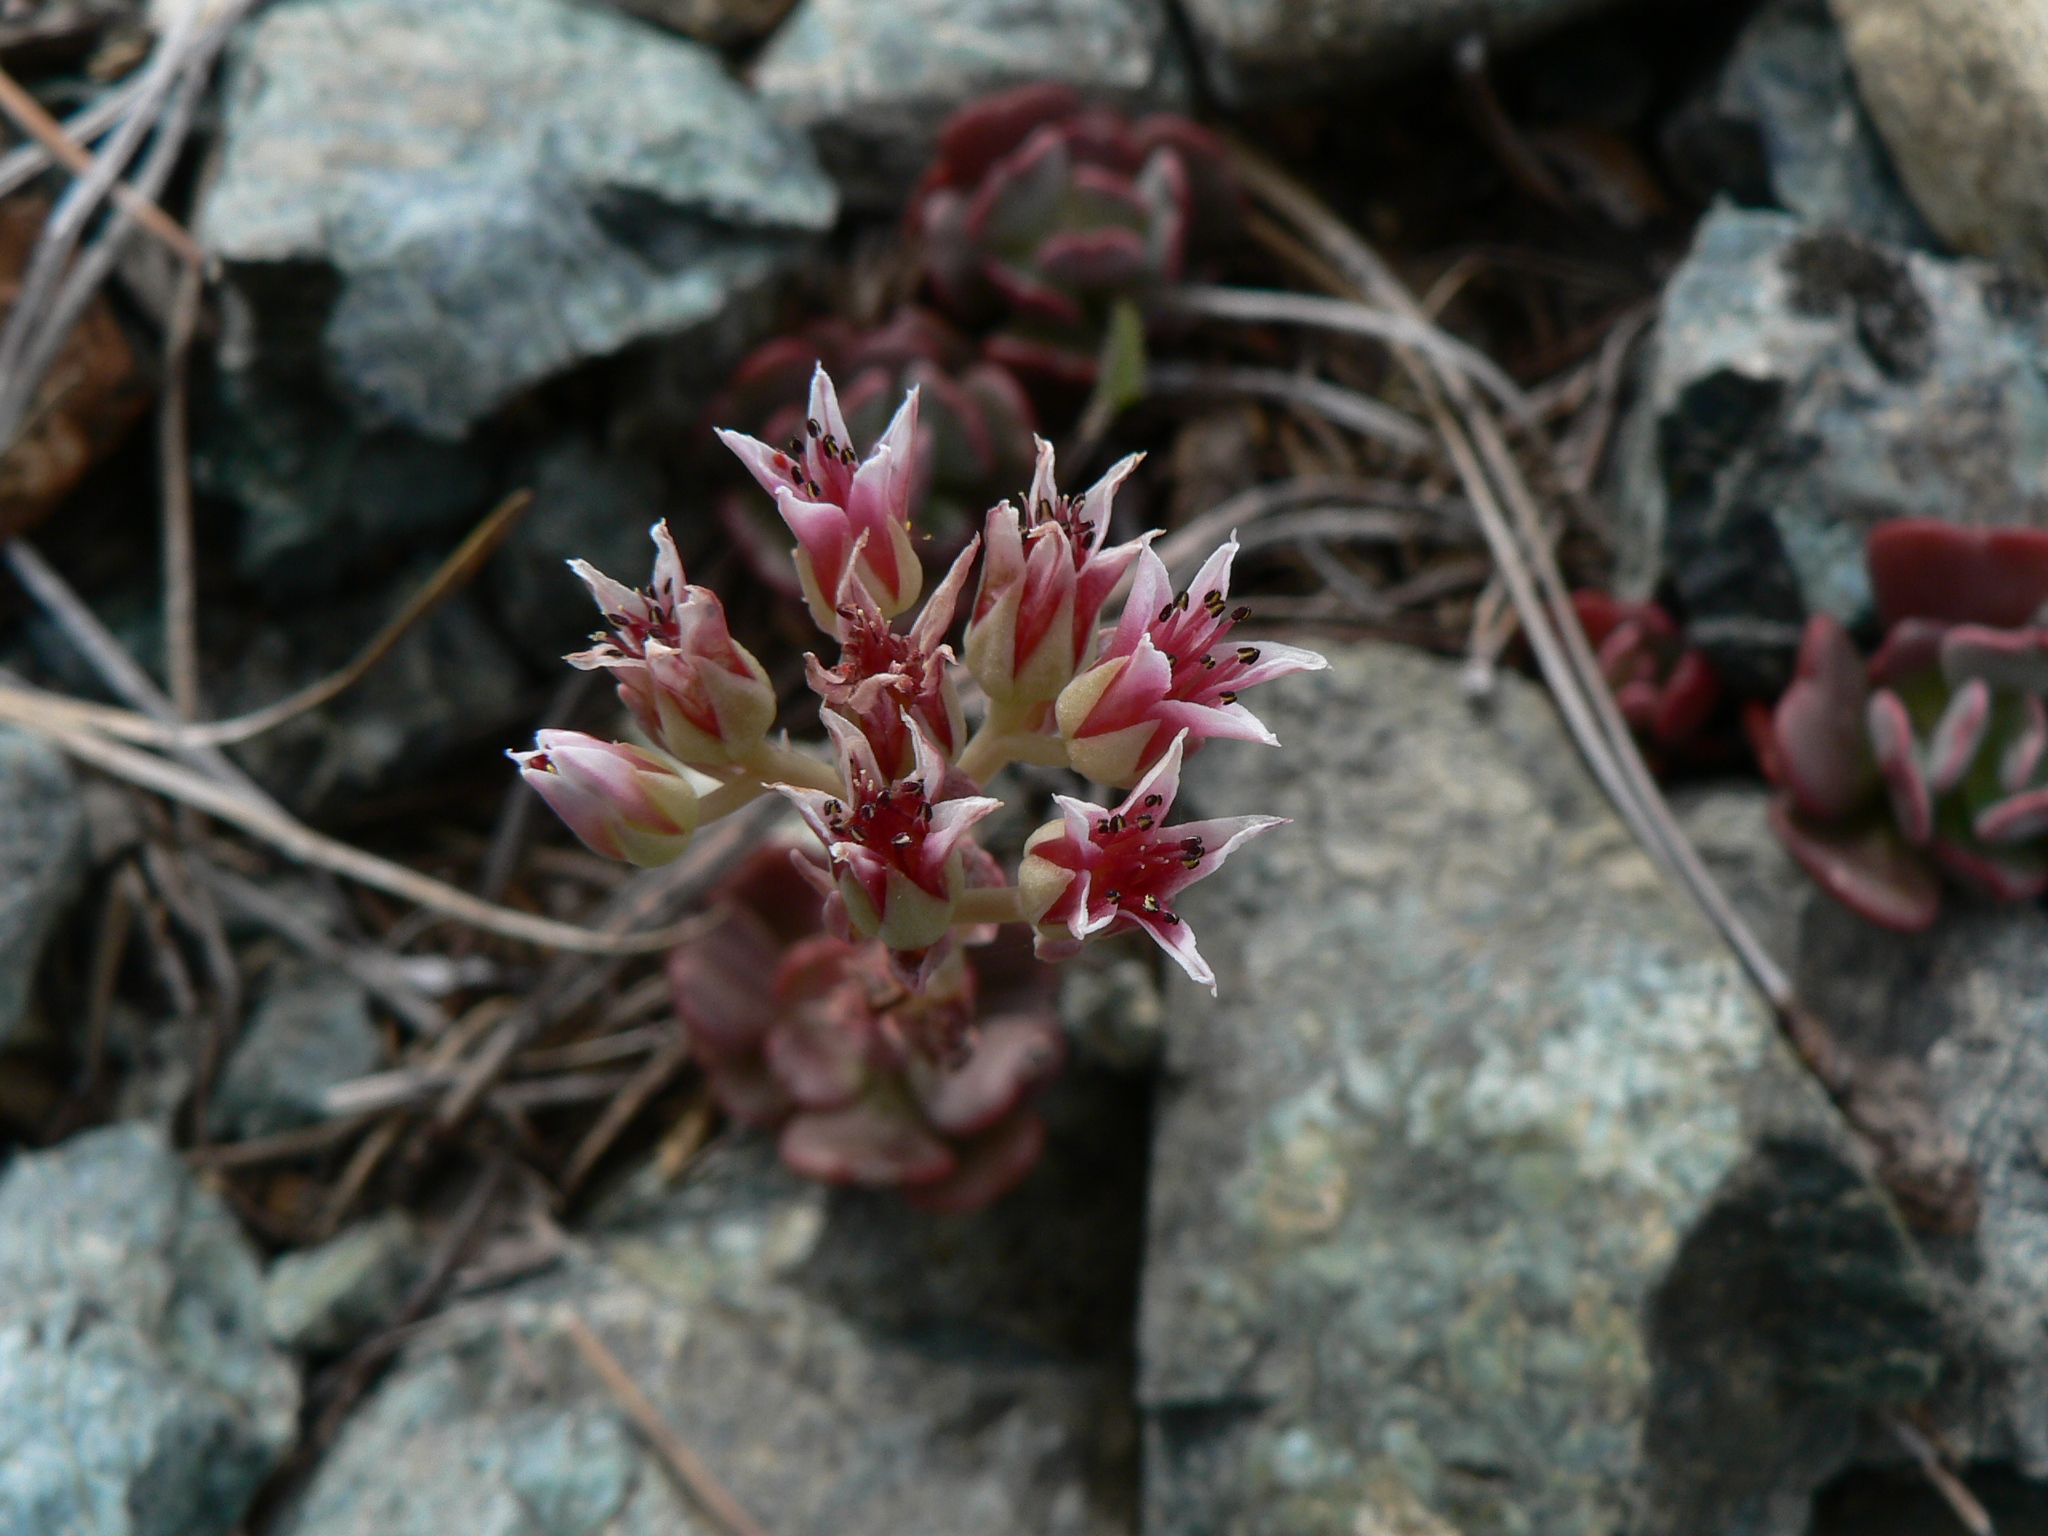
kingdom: Plantae
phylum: Tracheophyta
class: Magnoliopsida
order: Saxifragales
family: Crassulaceae
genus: Sedum
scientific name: Sedum laxum
